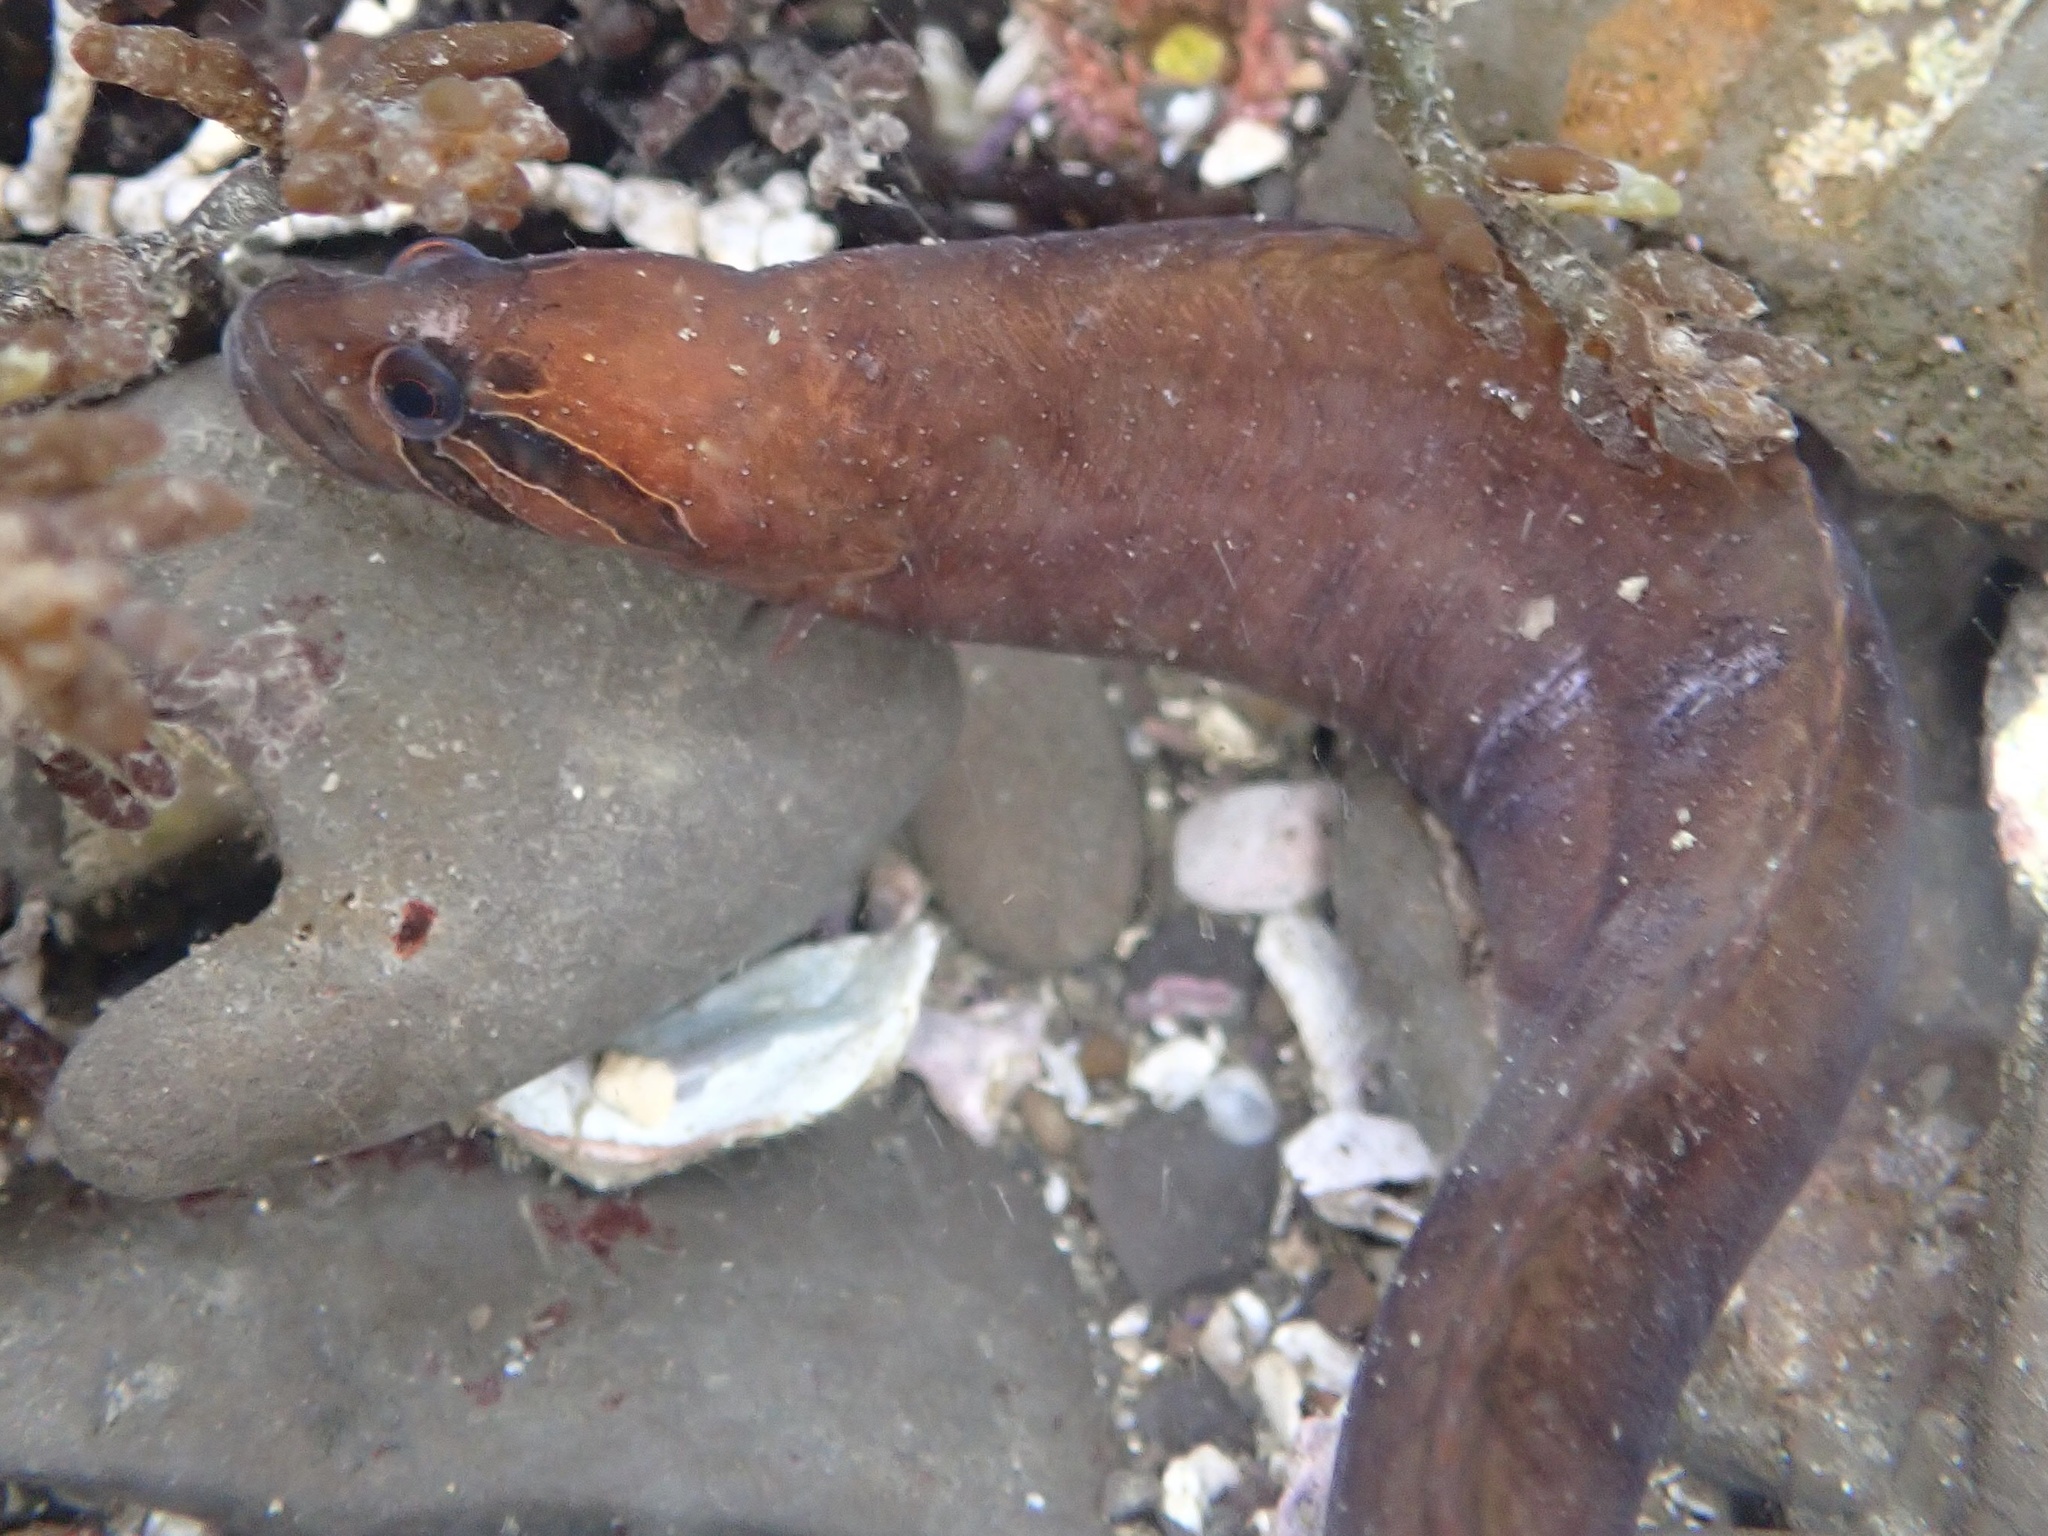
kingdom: Animalia
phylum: Chordata
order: Perciformes
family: Stichaeidae
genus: Xiphister
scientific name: Xiphister atropurpureus
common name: Black prickleback
